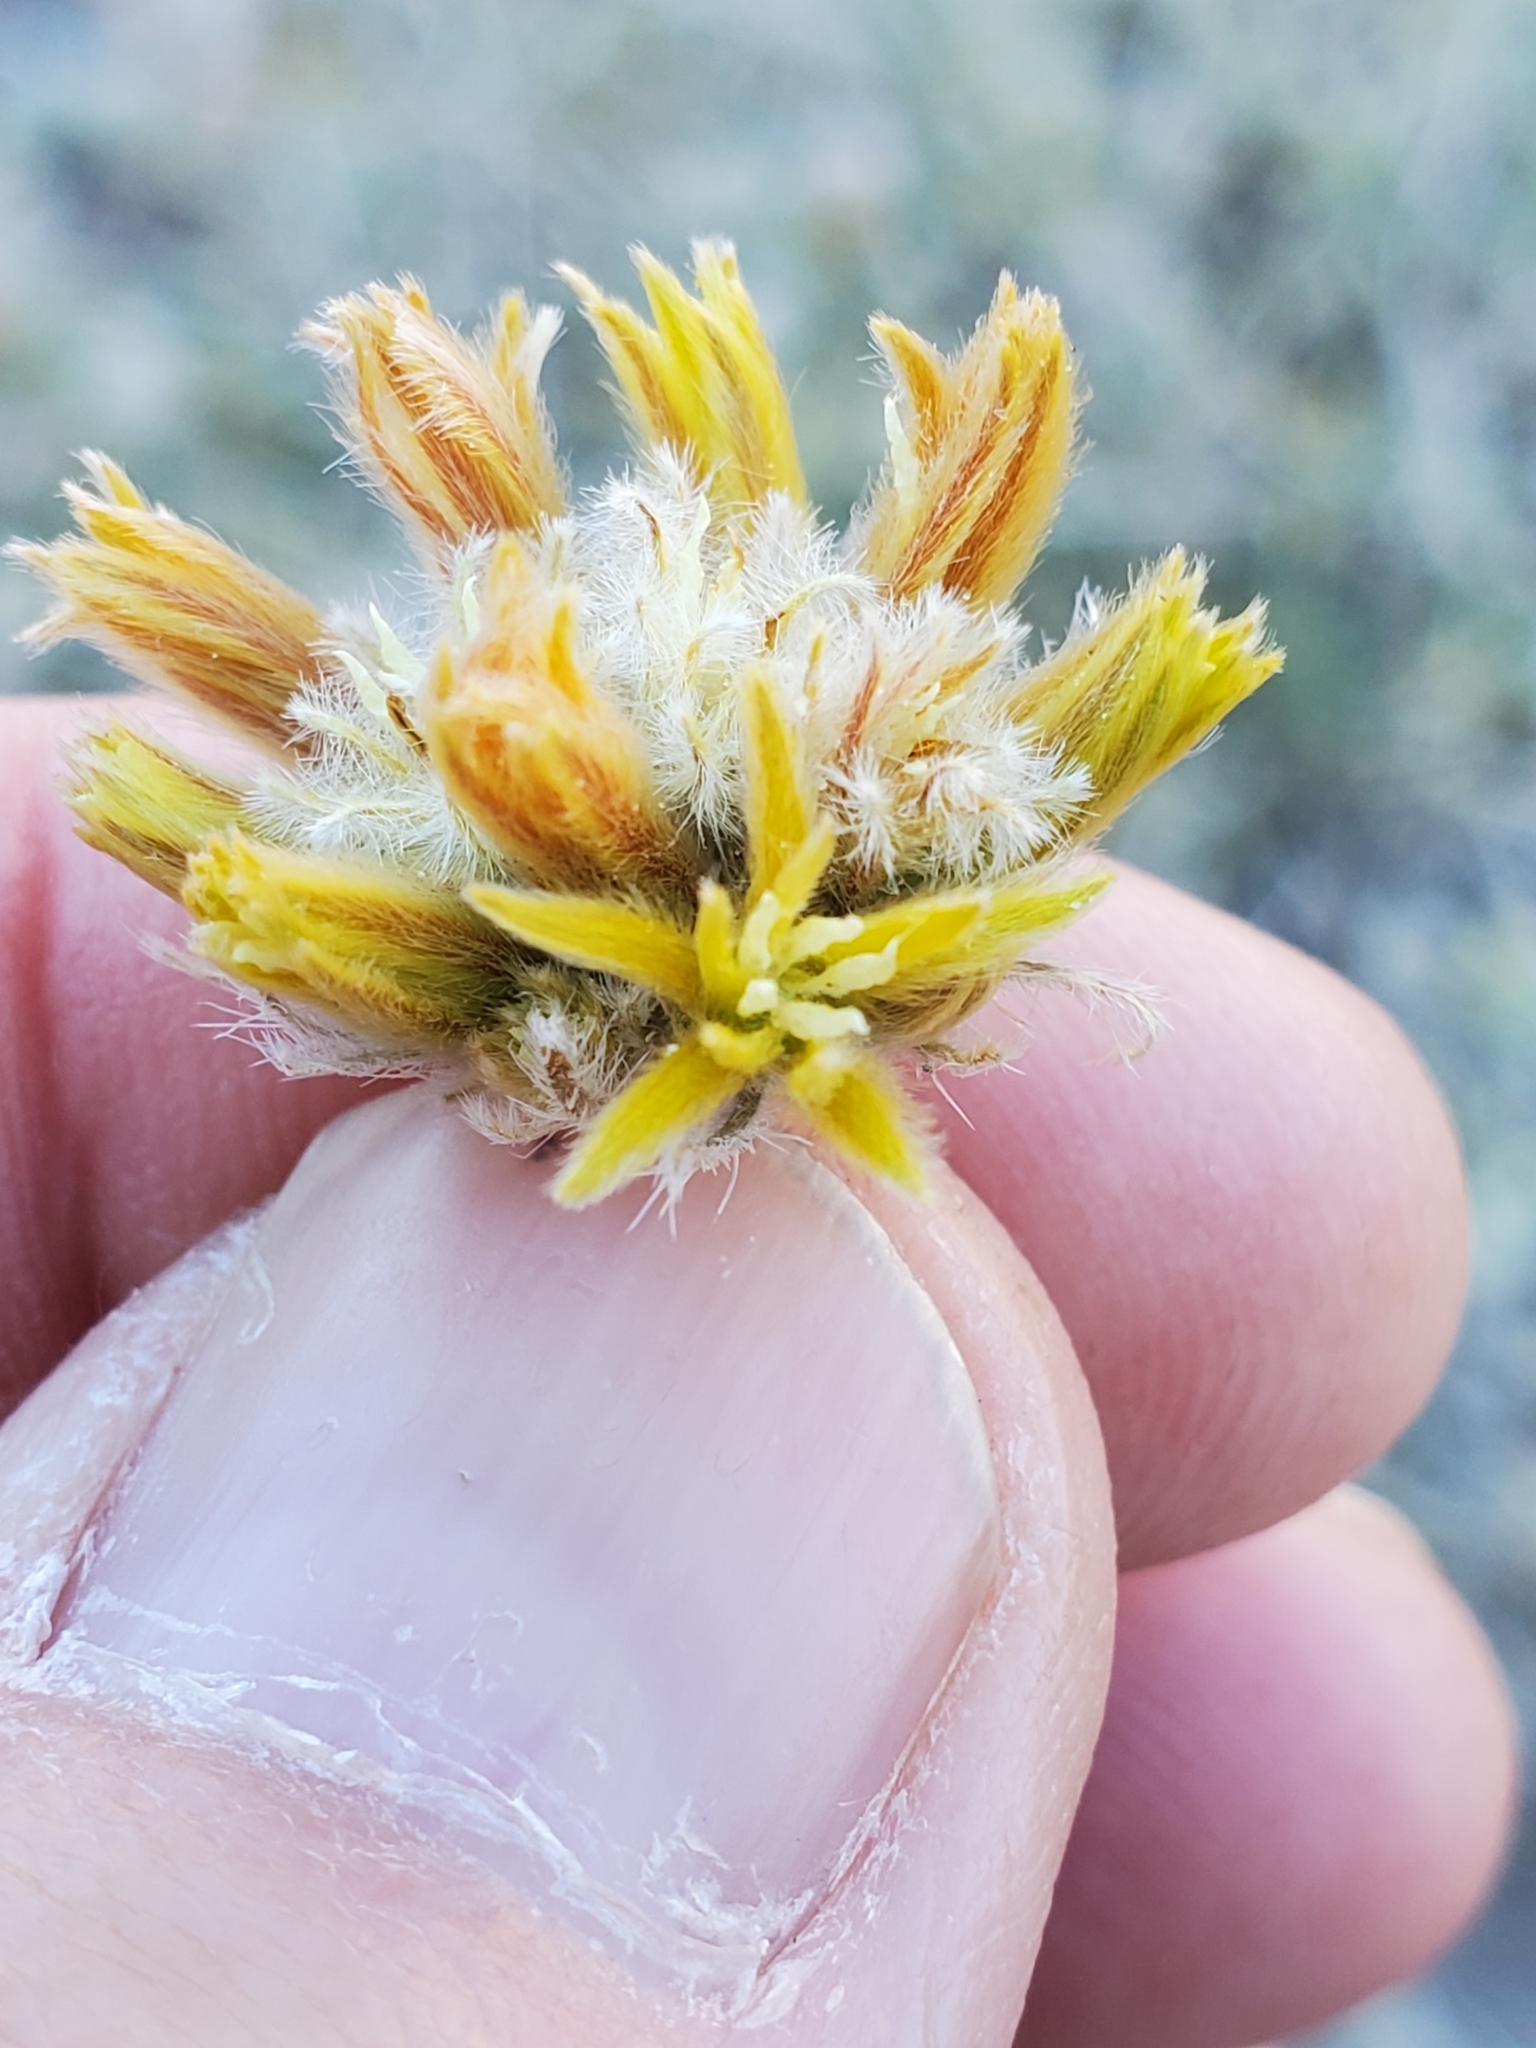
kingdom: Plantae
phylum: Tracheophyta
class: Magnoliopsida
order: Cornales
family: Loasaceae
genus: Cevallia
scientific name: Cevallia sinuata
